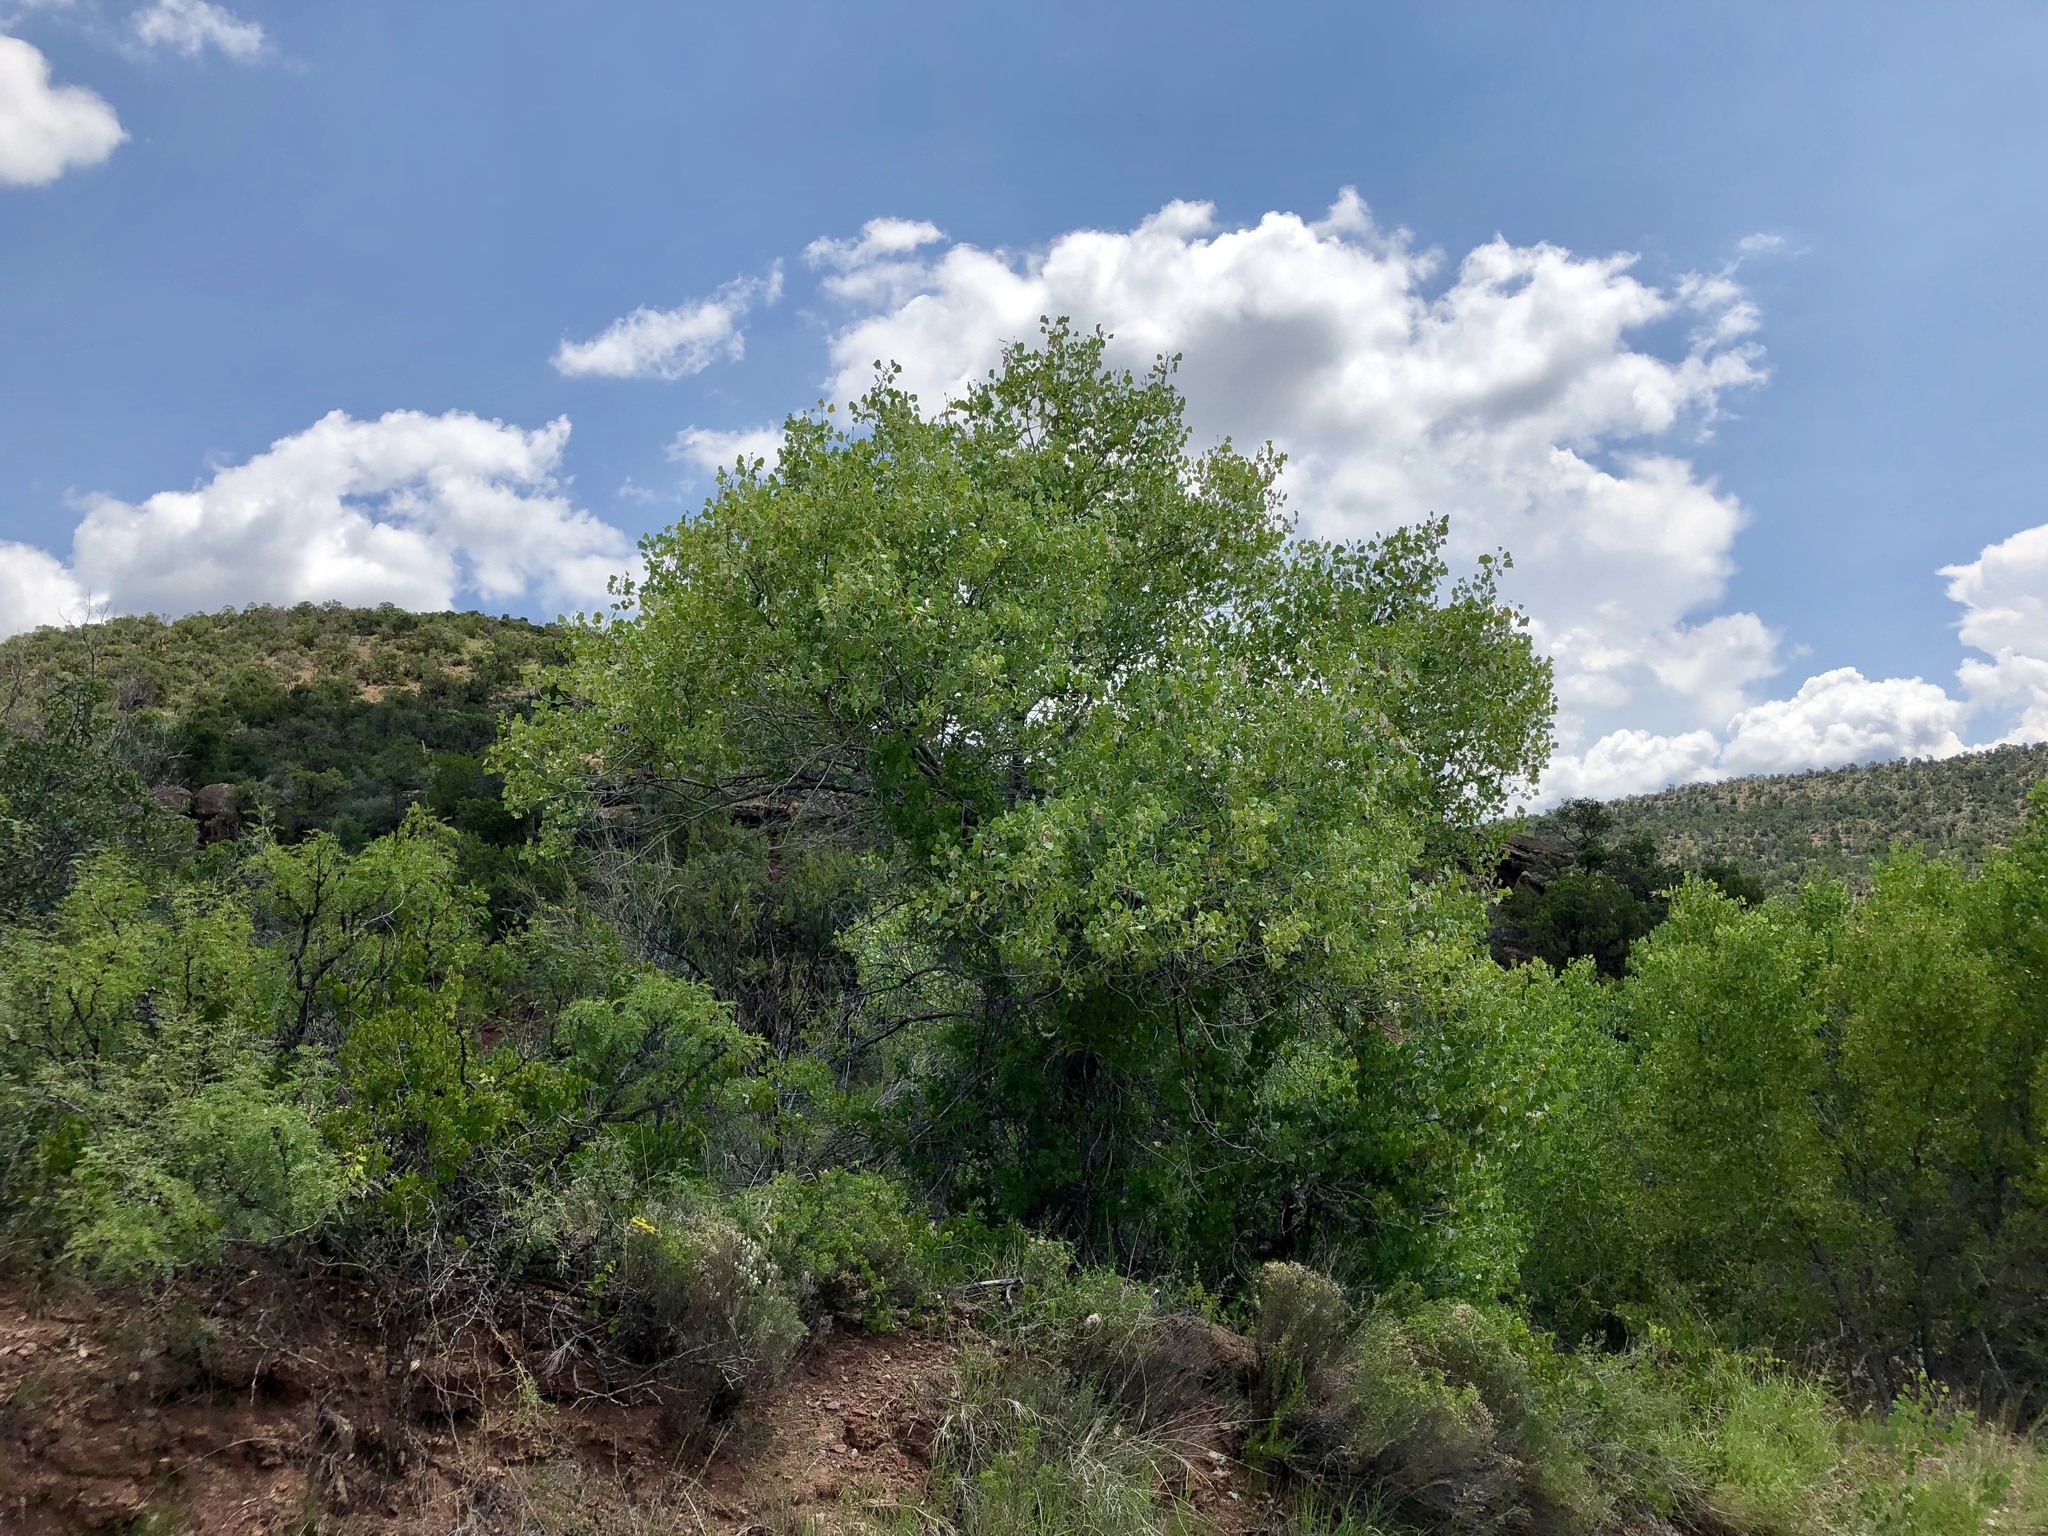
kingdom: Plantae
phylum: Tracheophyta
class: Magnoliopsida
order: Malpighiales
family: Salicaceae
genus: Populus
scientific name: Populus fremontii
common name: Fremont's cottonwood
